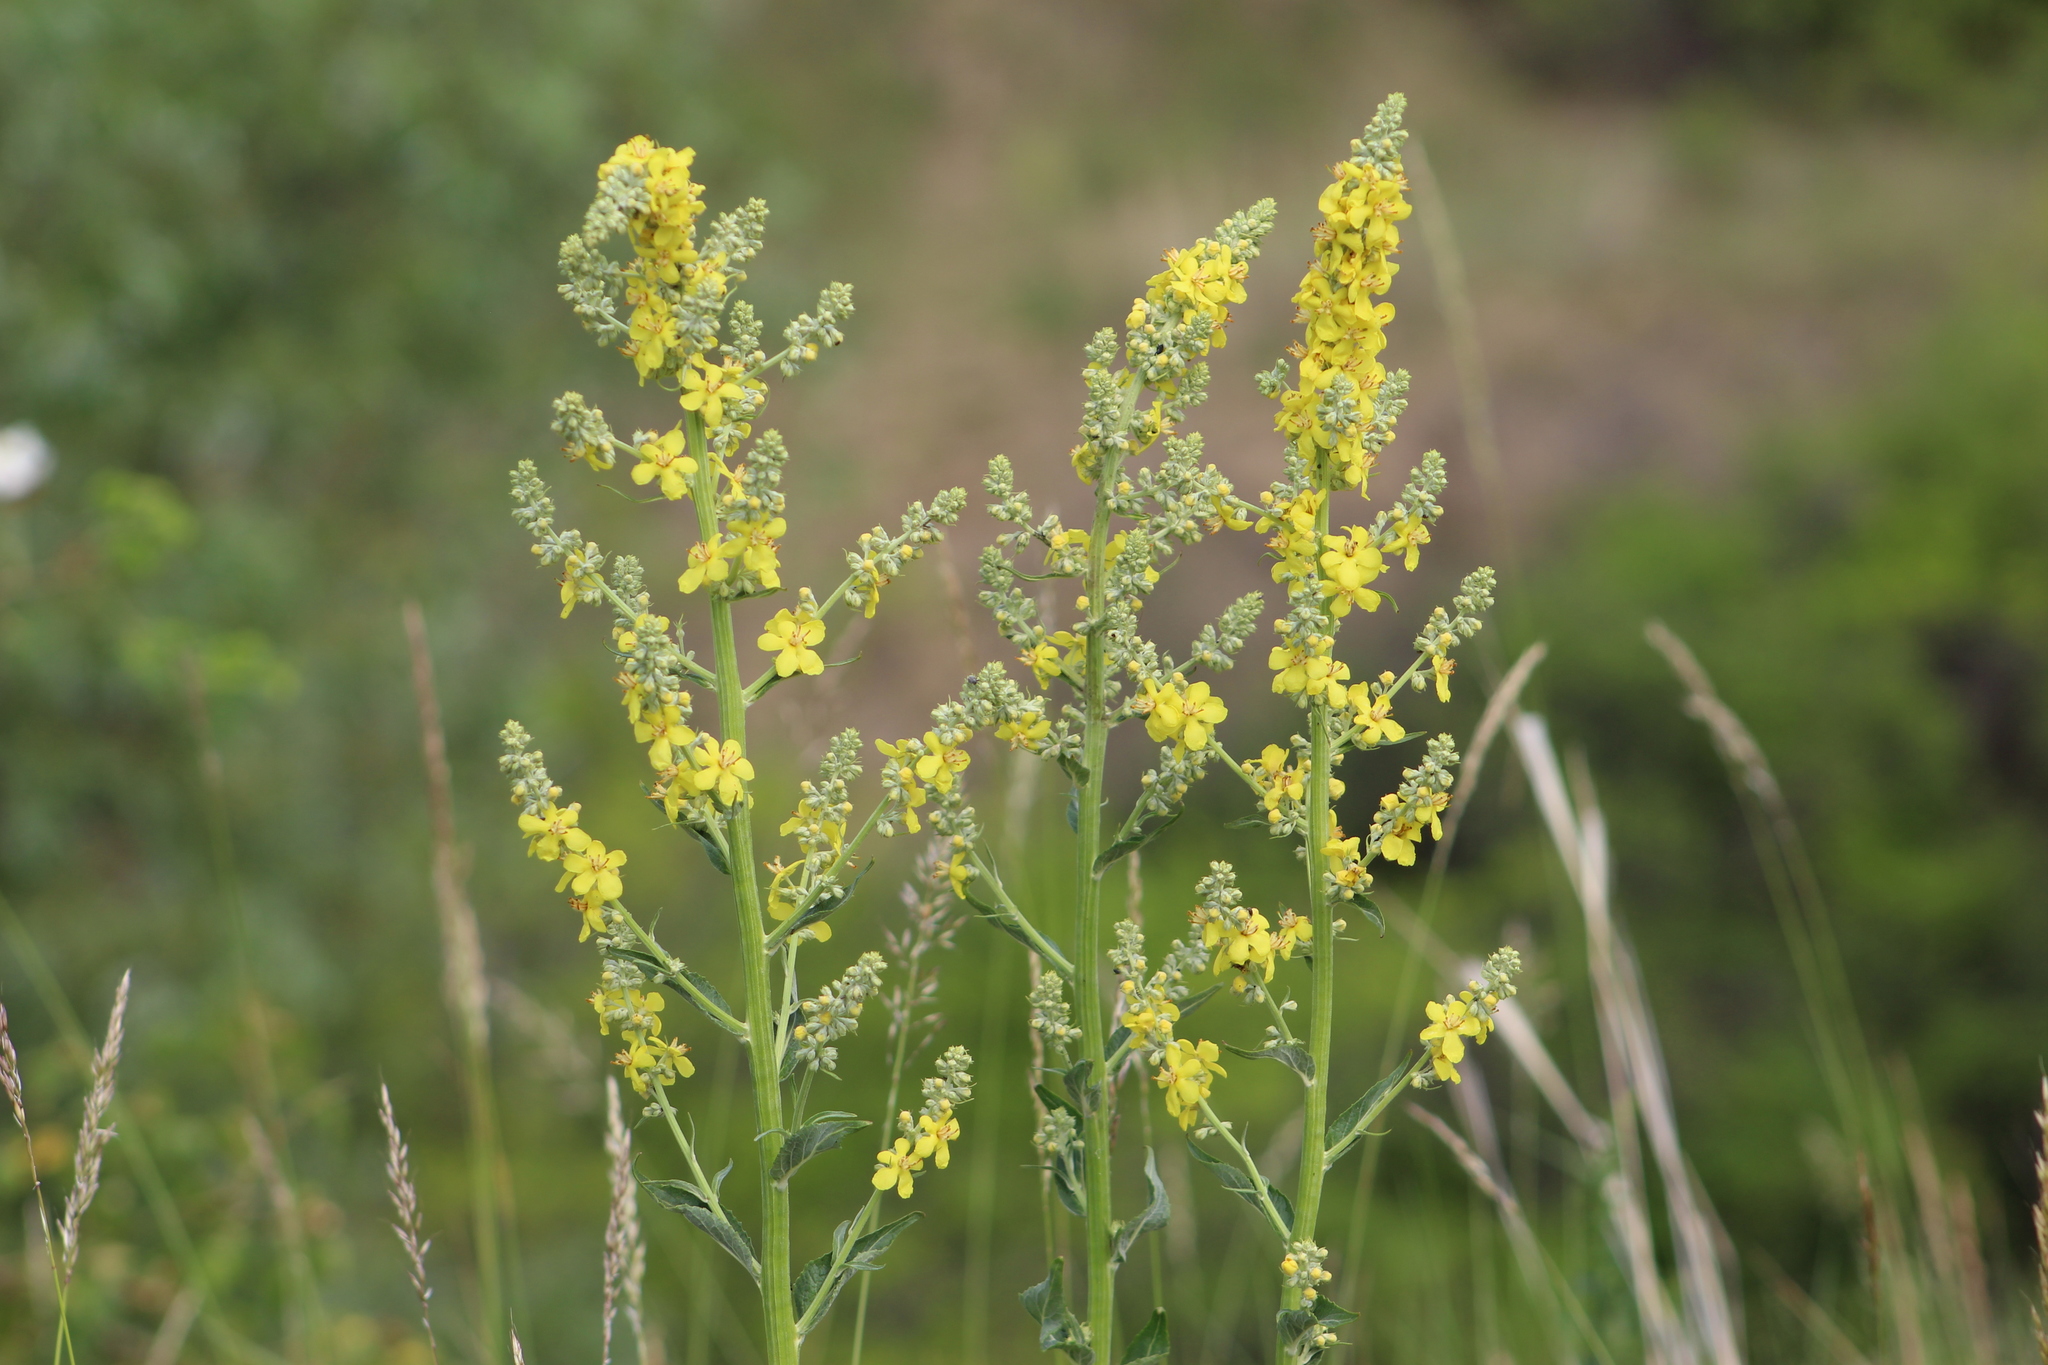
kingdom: Plantae
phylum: Tracheophyta
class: Magnoliopsida
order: Lamiales
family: Scrophulariaceae
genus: Verbascum
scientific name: Verbascum lychnitis
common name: White mullein
